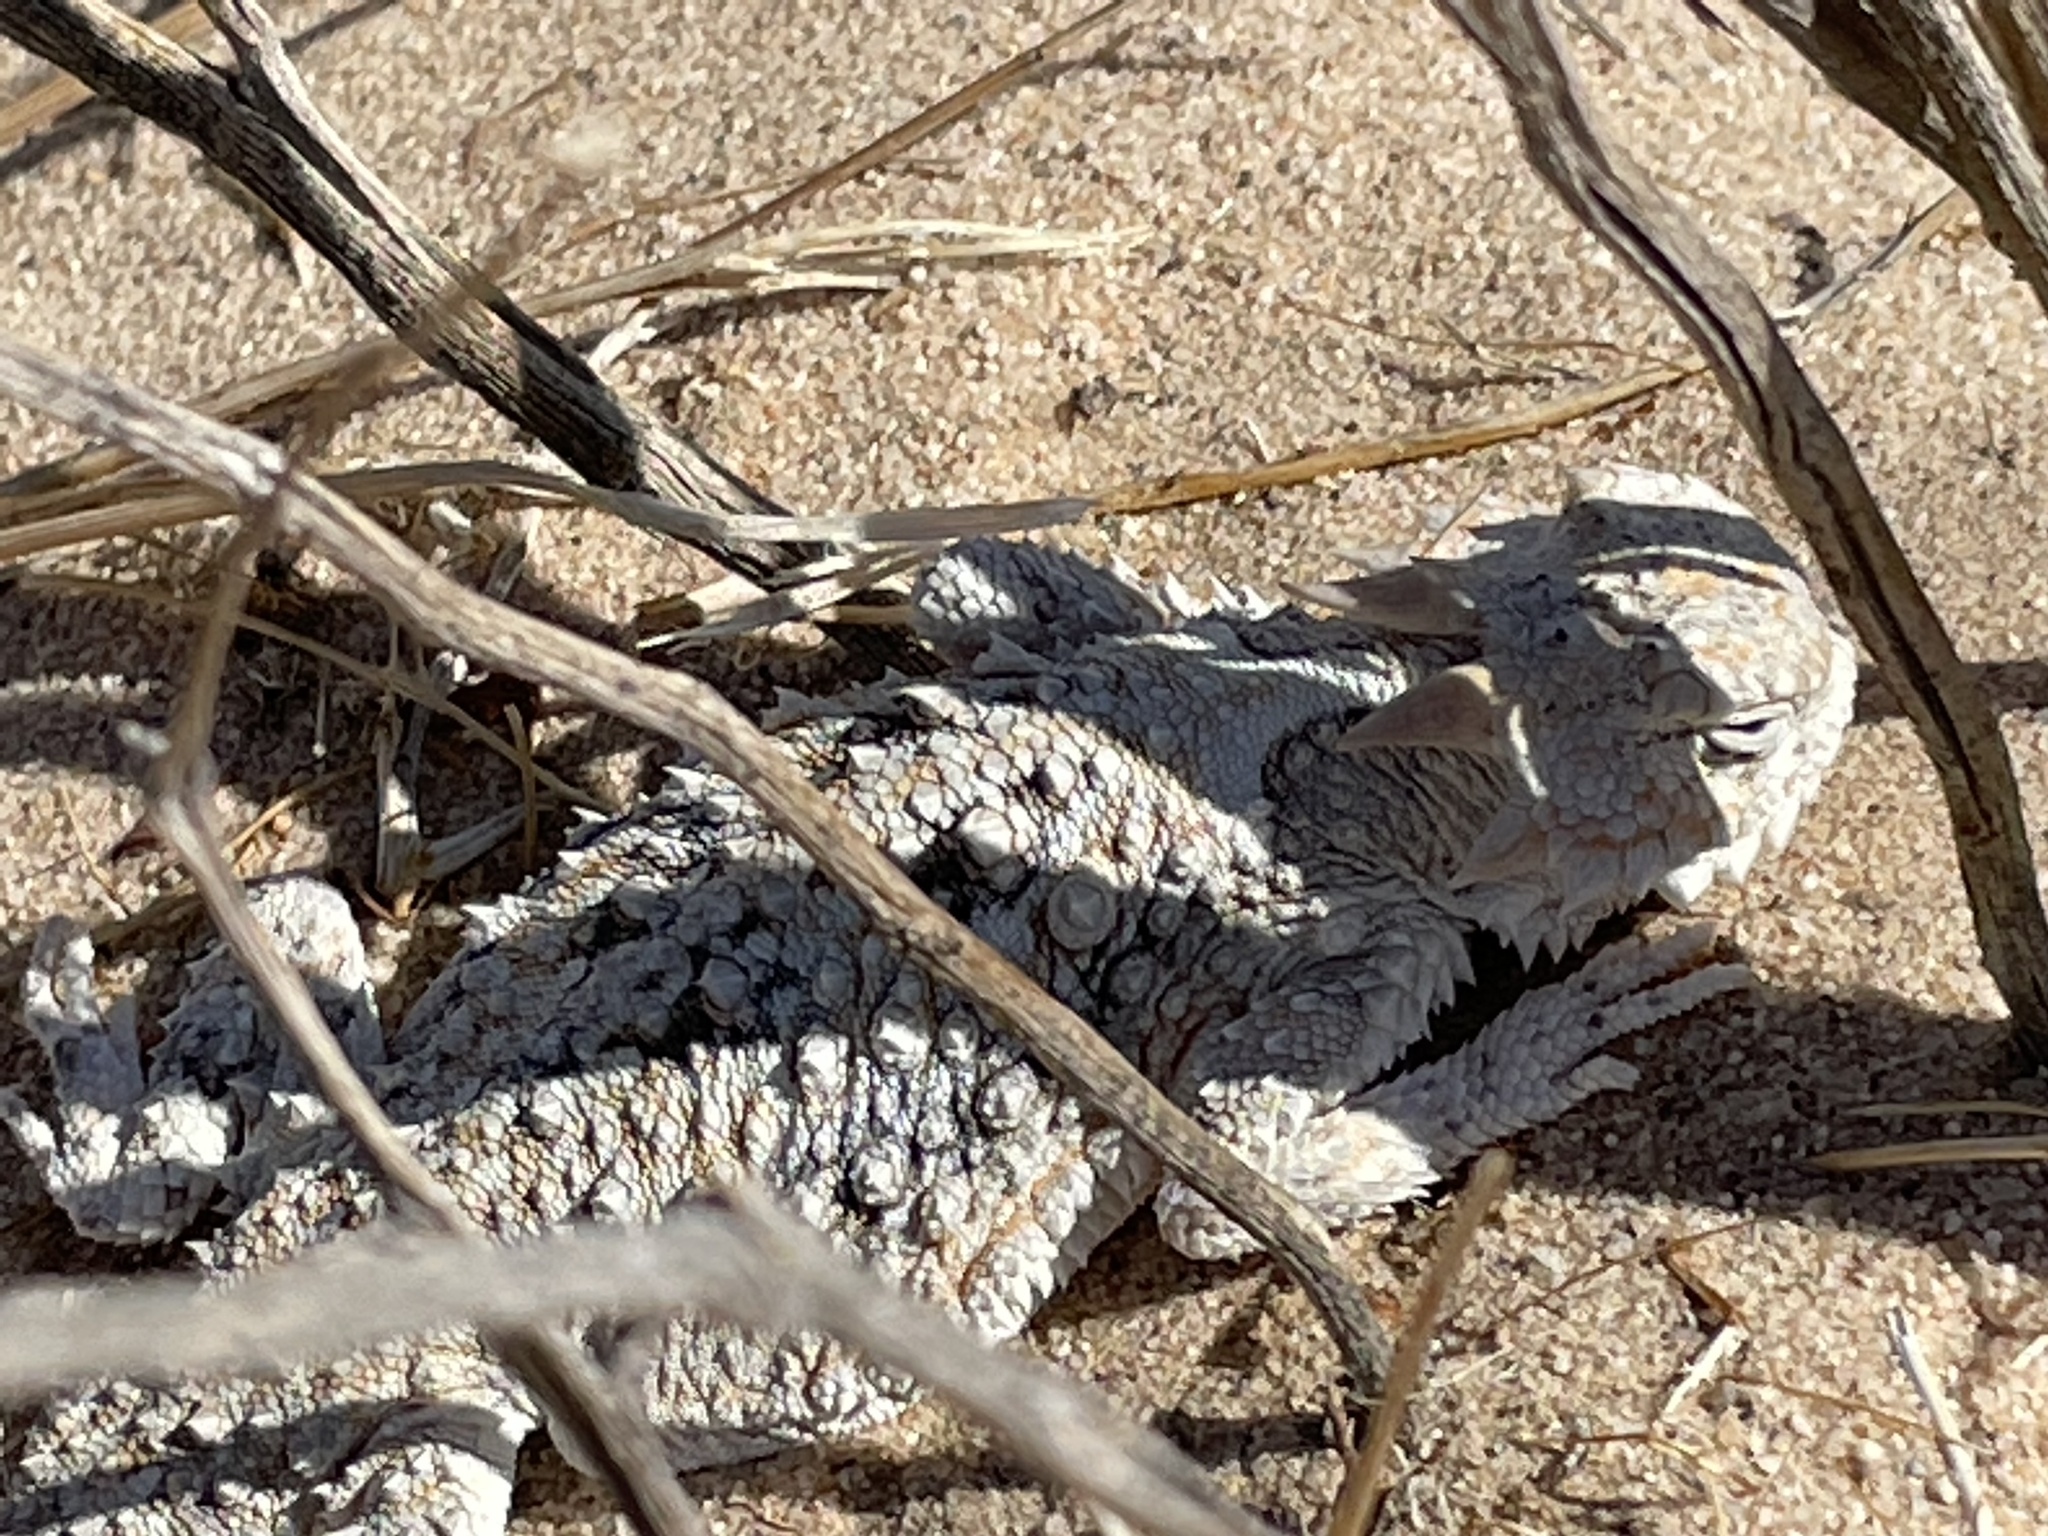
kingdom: Animalia
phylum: Chordata
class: Squamata
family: Phrynosomatidae
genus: Phrynosoma
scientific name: Phrynosoma platyrhinos
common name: Desert horned lizard
